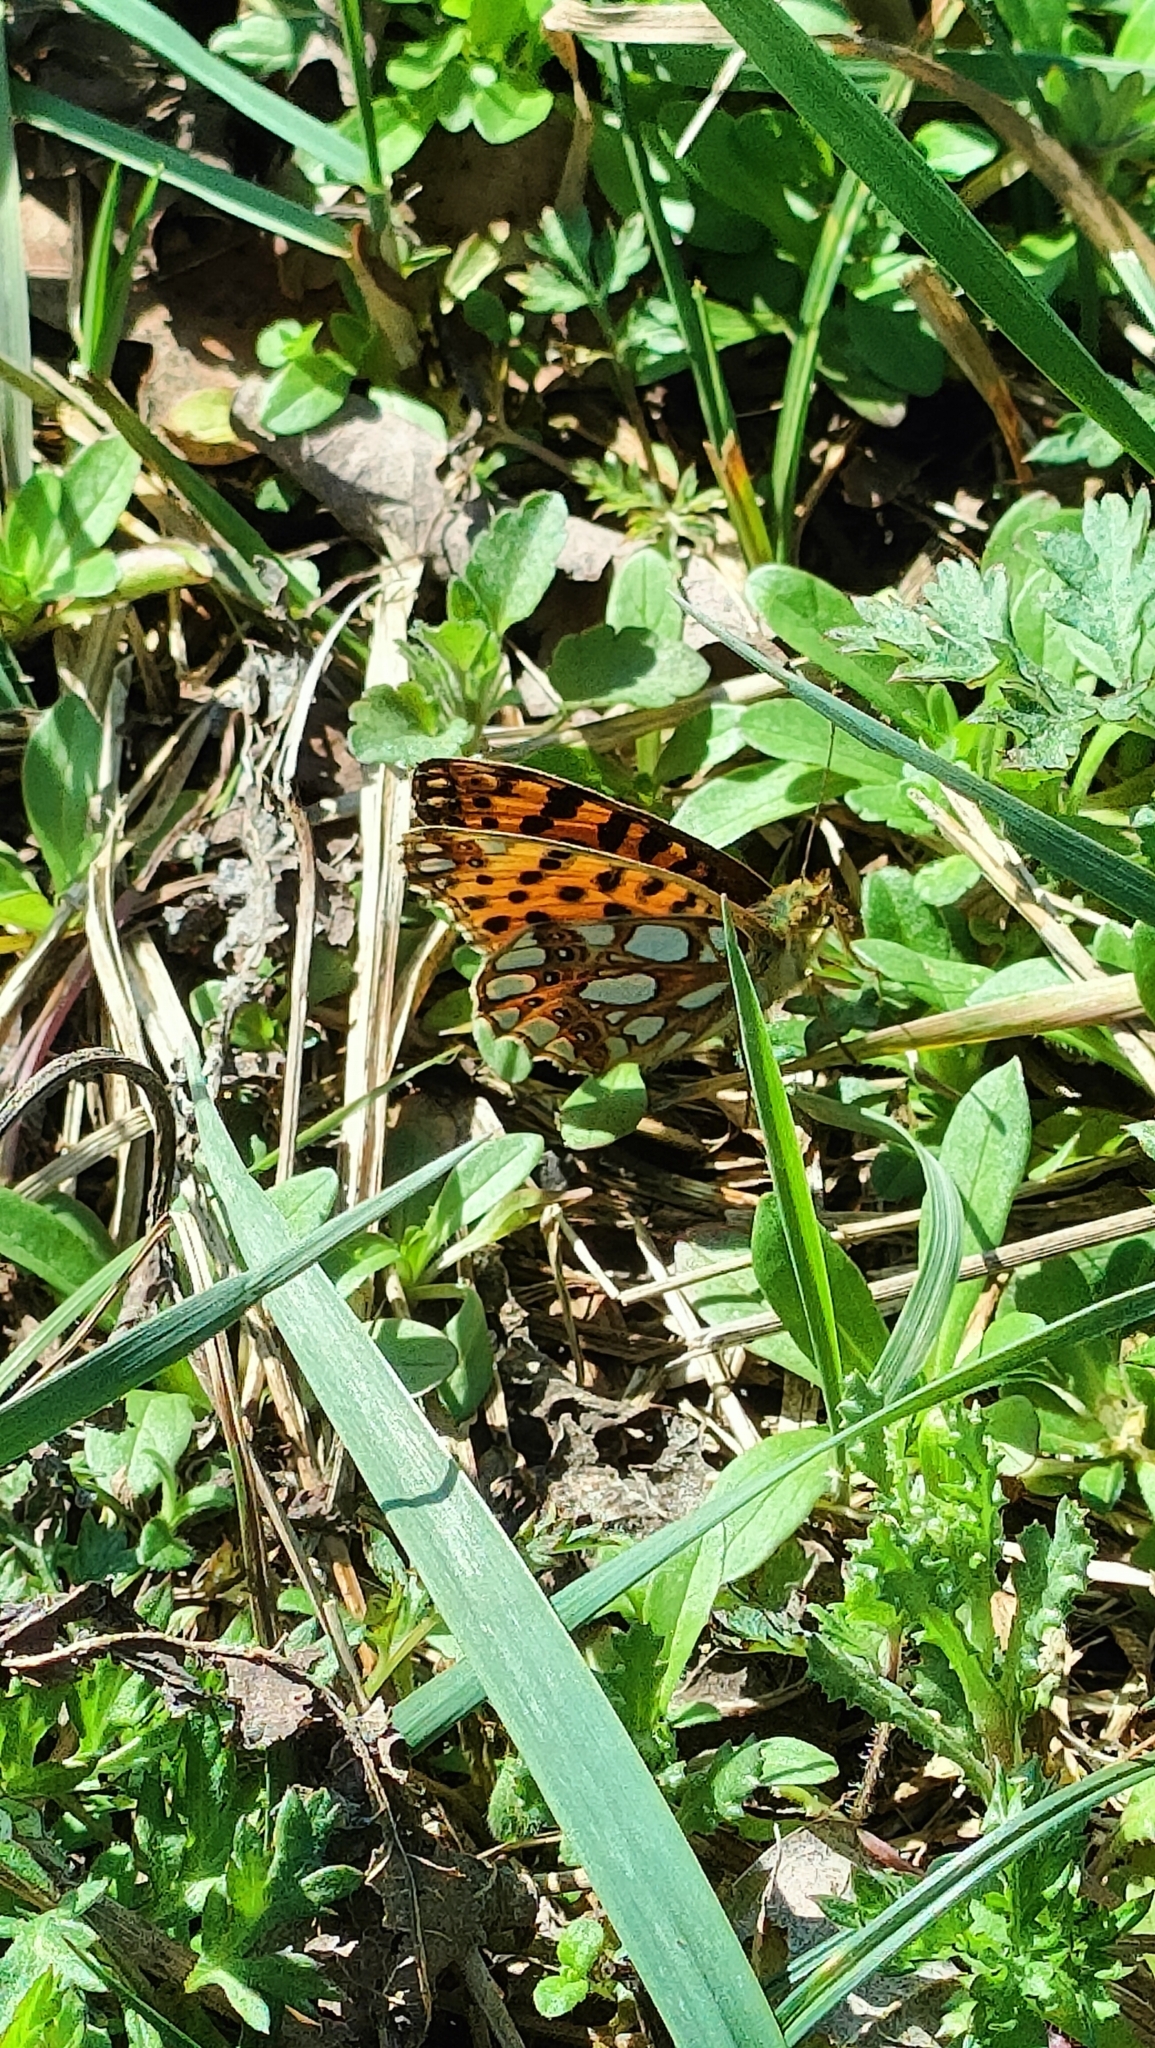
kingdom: Animalia
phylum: Arthropoda
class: Insecta
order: Lepidoptera
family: Nymphalidae
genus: Issoria
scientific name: Issoria lathonia
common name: Queen of spain fritillary
